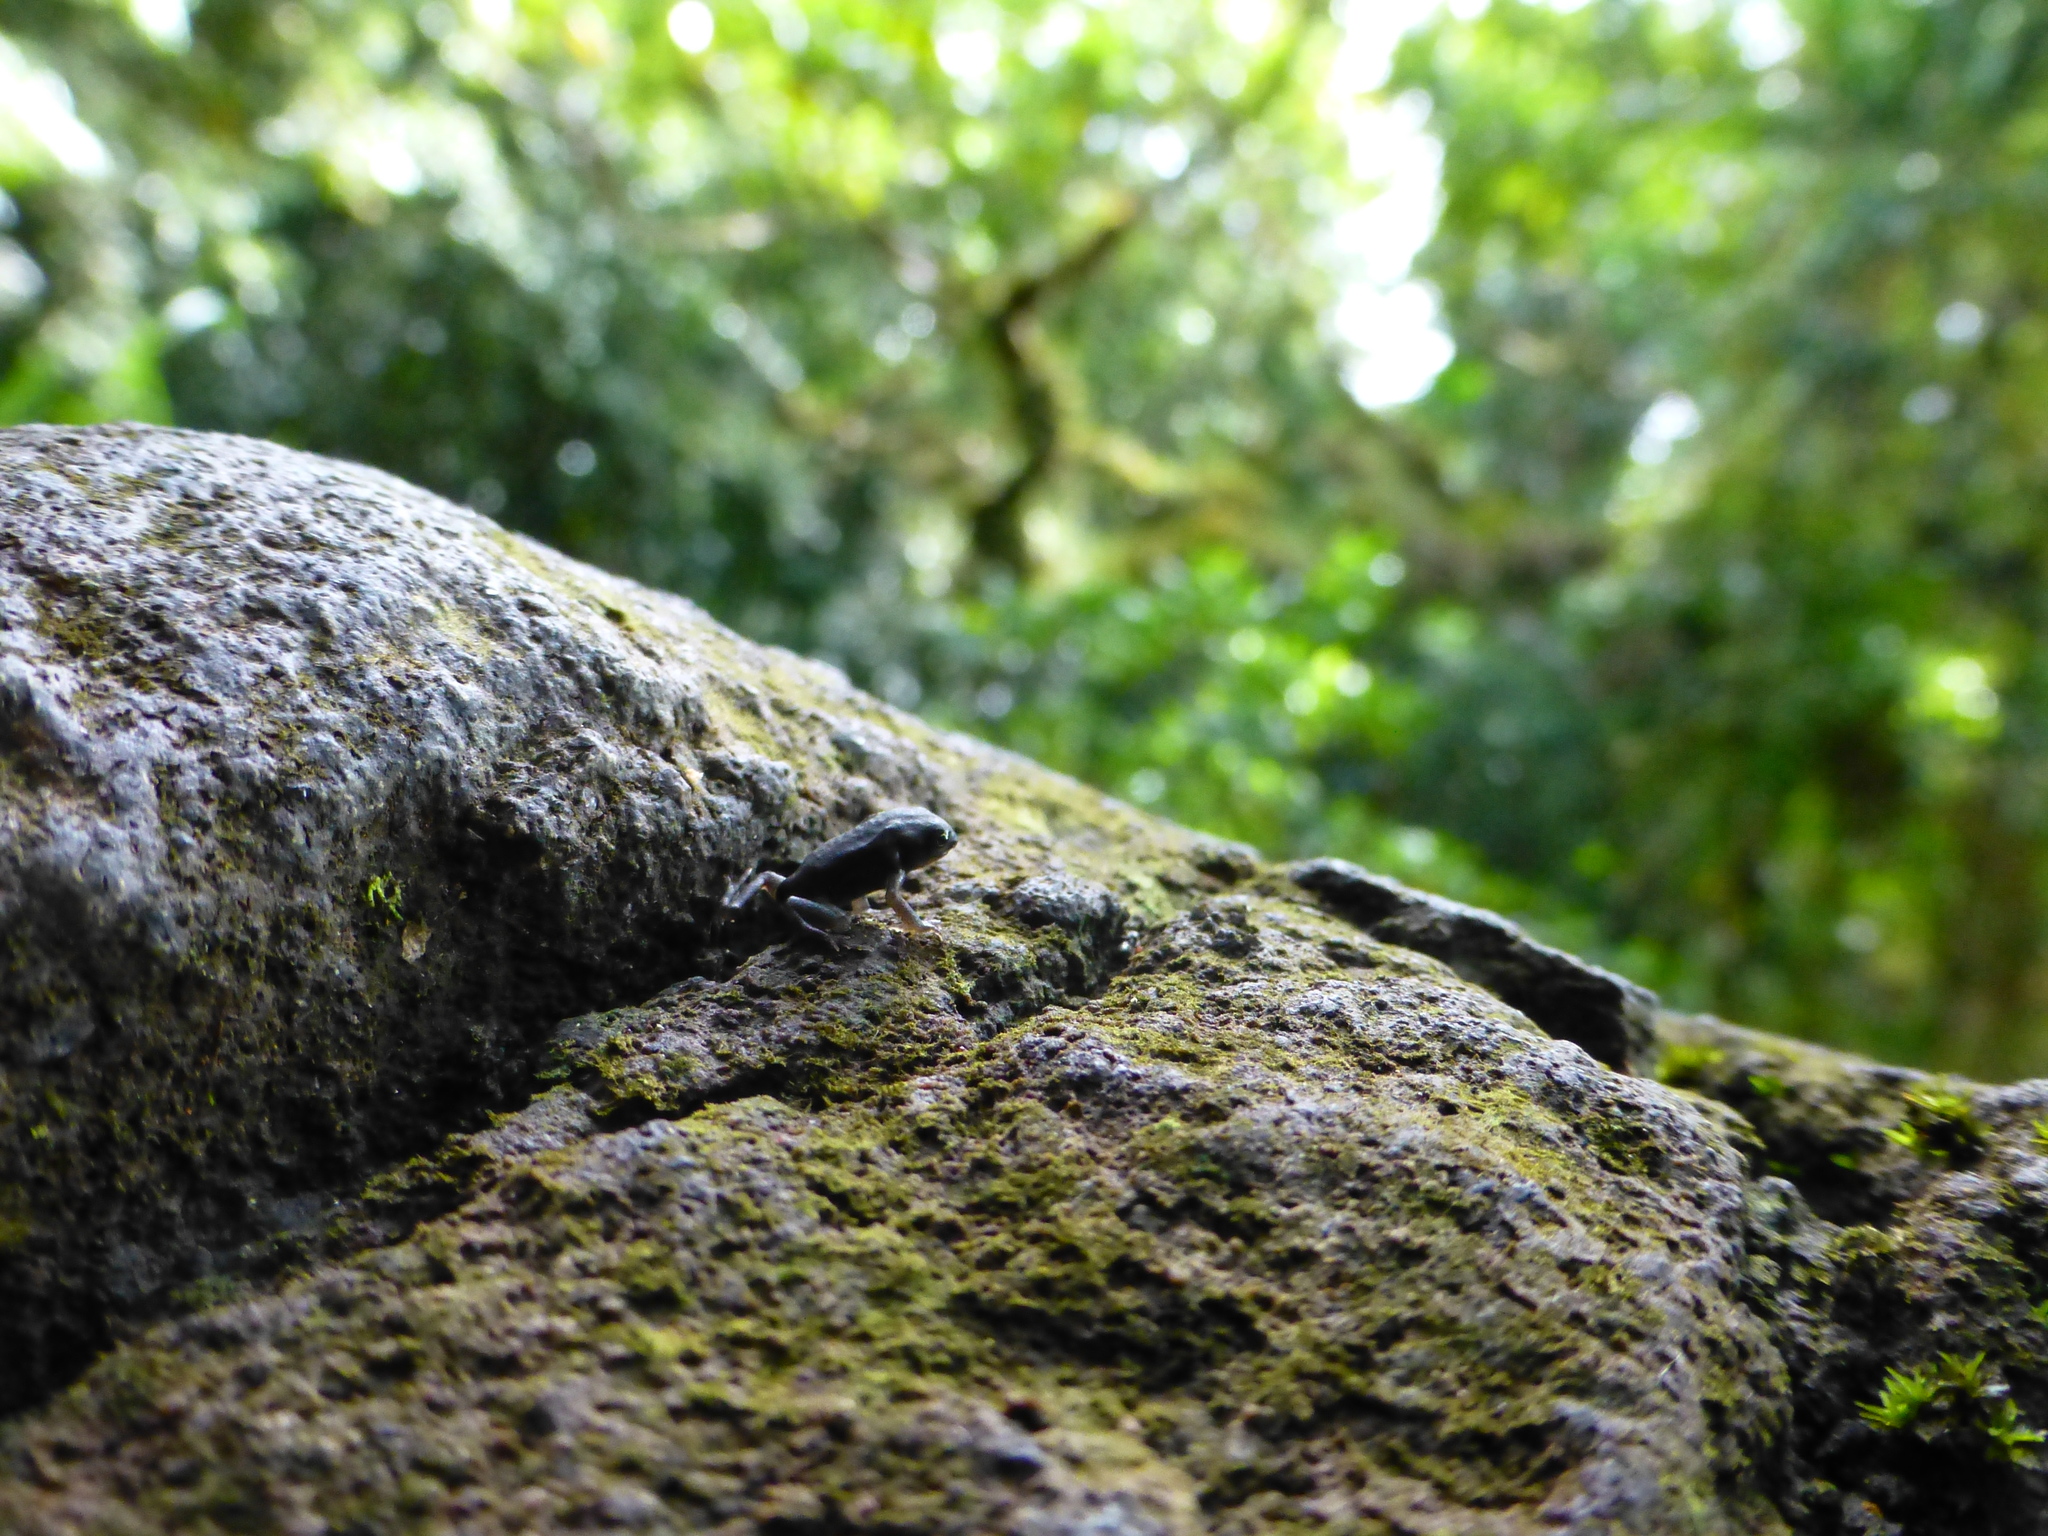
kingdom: Animalia
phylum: Chordata
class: Amphibia
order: Anura
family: Ceratobatrachidae
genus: Cornufer
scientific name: Cornufer pelewensis
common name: Palau frog
